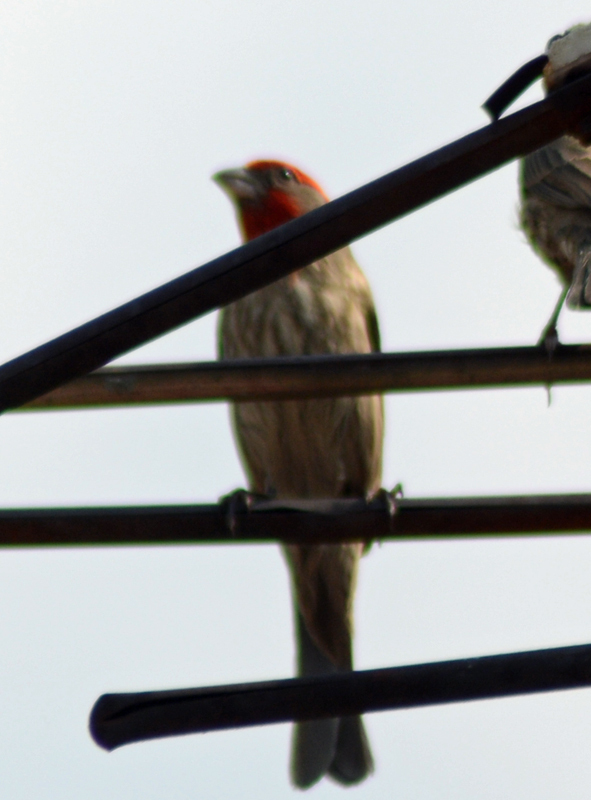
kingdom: Animalia
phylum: Chordata
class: Aves
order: Passeriformes
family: Fringillidae
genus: Haemorhous
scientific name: Haemorhous mexicanus
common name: House finch
